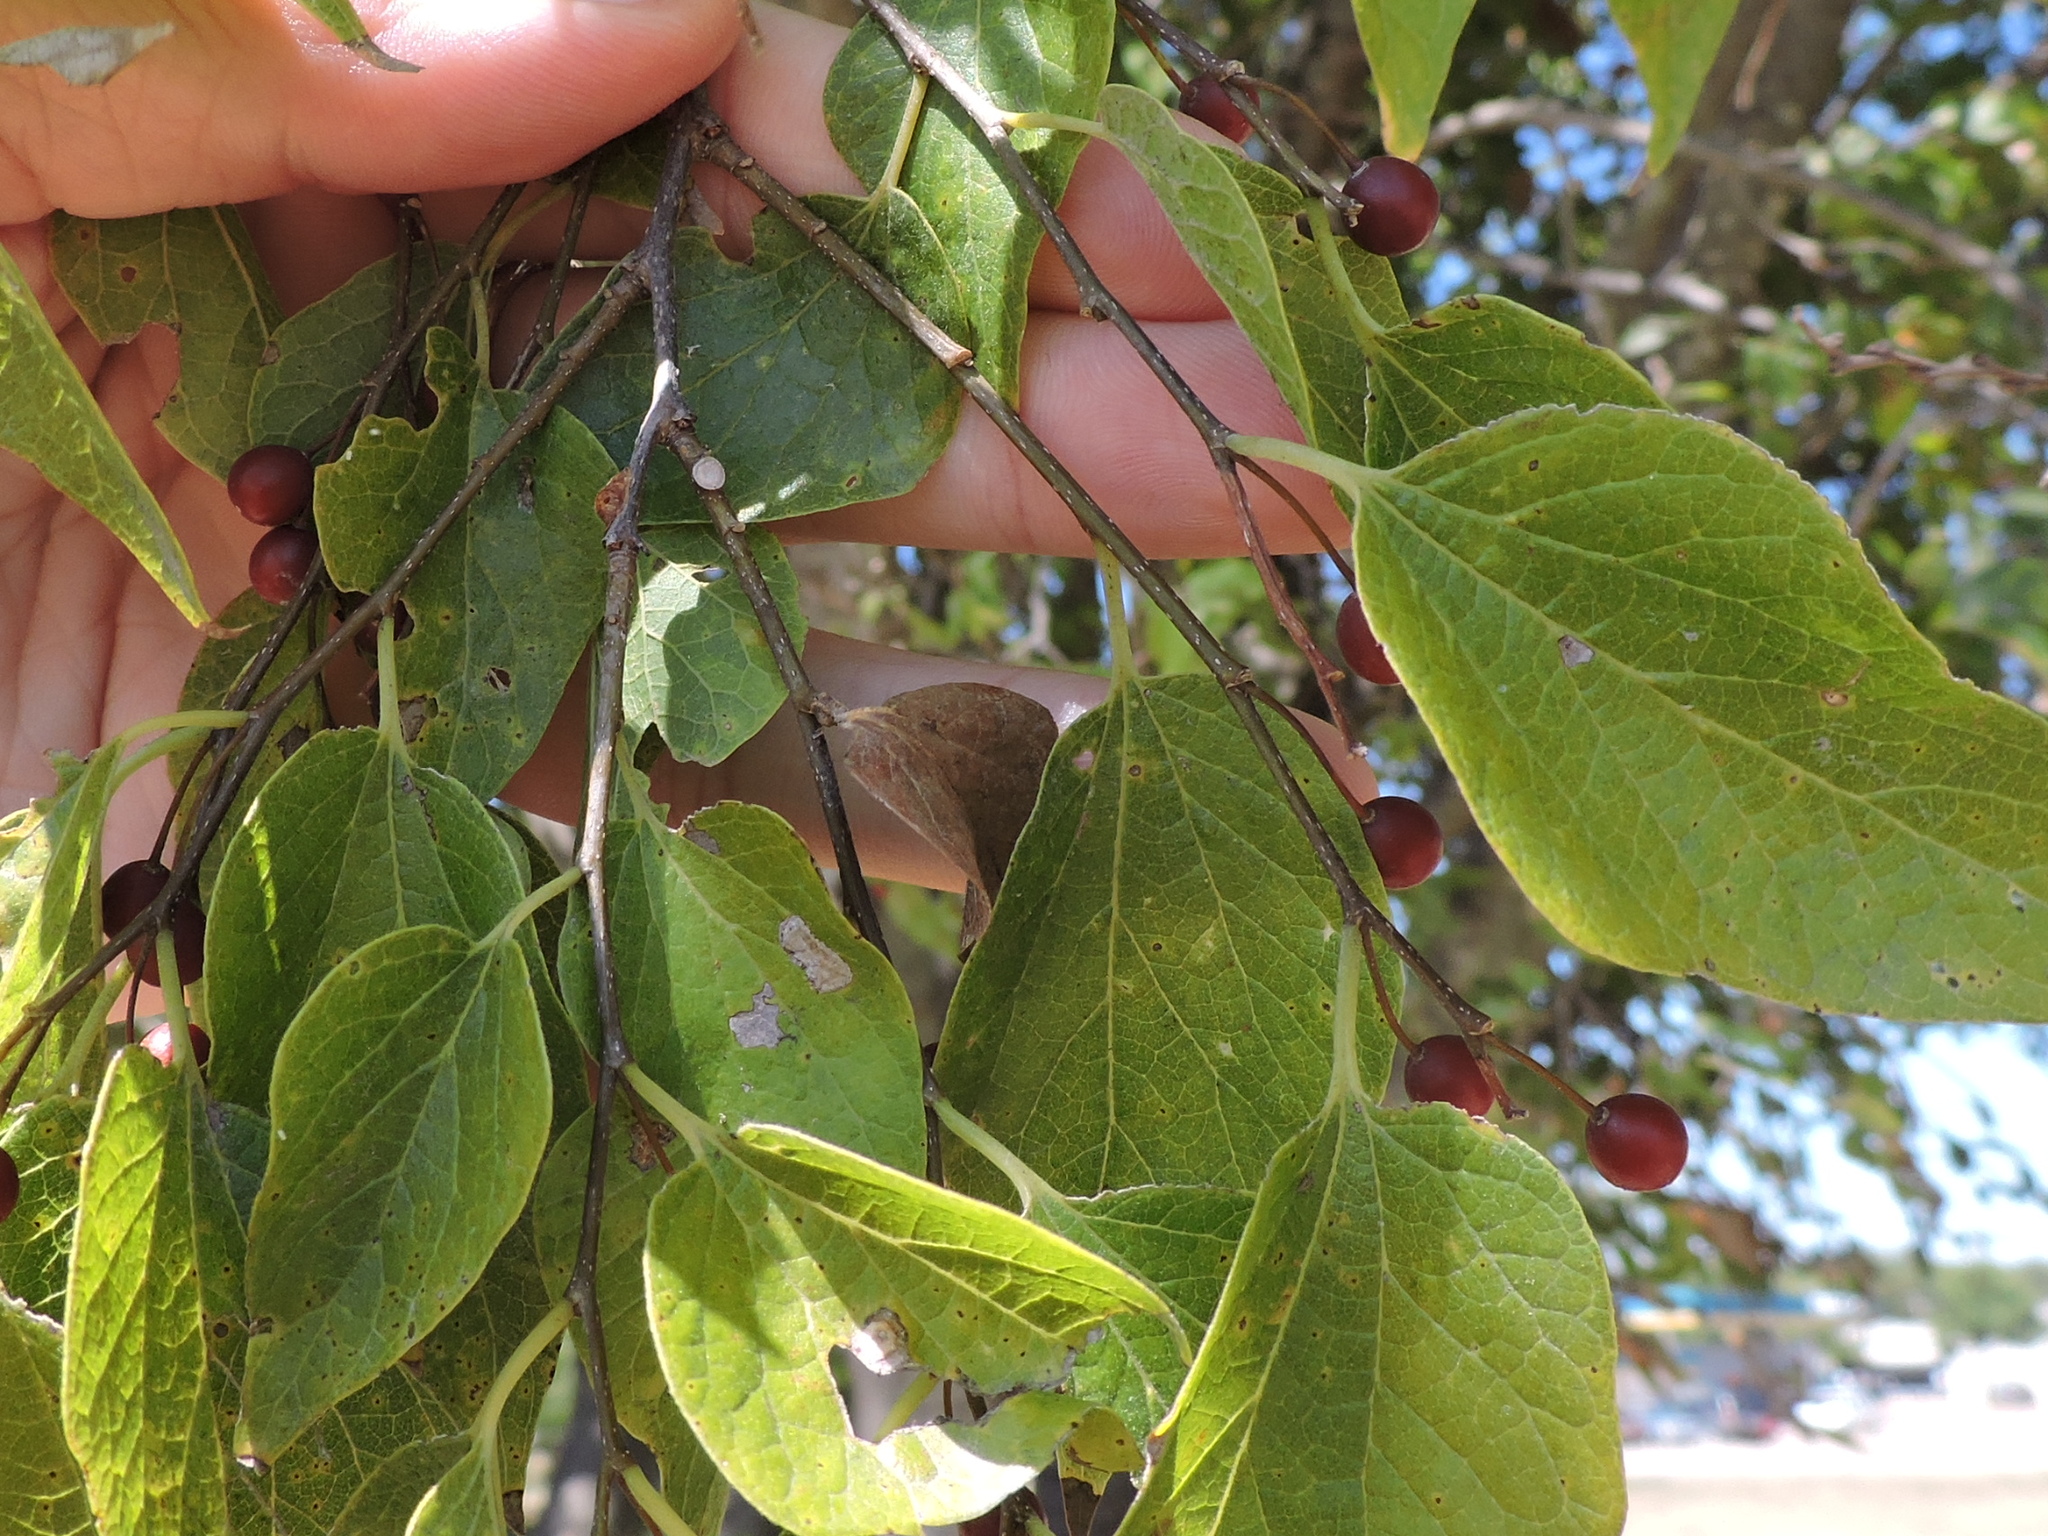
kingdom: Plantae
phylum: Tracheophyta
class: Magnoliopsida
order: Rosales
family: Cannabaceae
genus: Celtis
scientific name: Celtis laevigata
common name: Sugarberry
